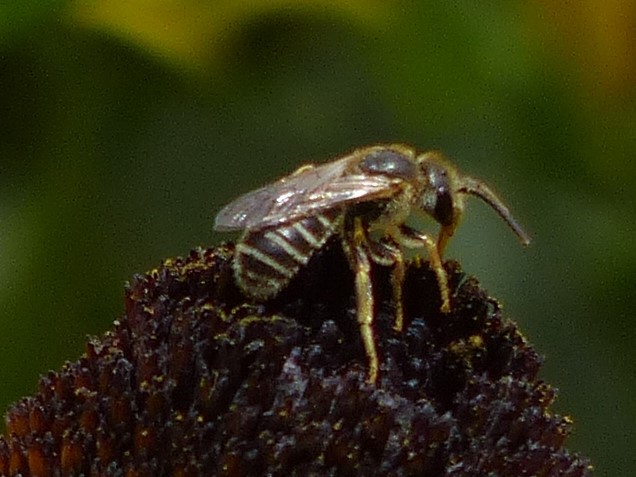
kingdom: Animalia
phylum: Arthropoda
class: Insecta
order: Hymenoptera
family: Halictidae
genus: Halictus
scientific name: Halictus ligatus
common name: Ligated furrow bee
